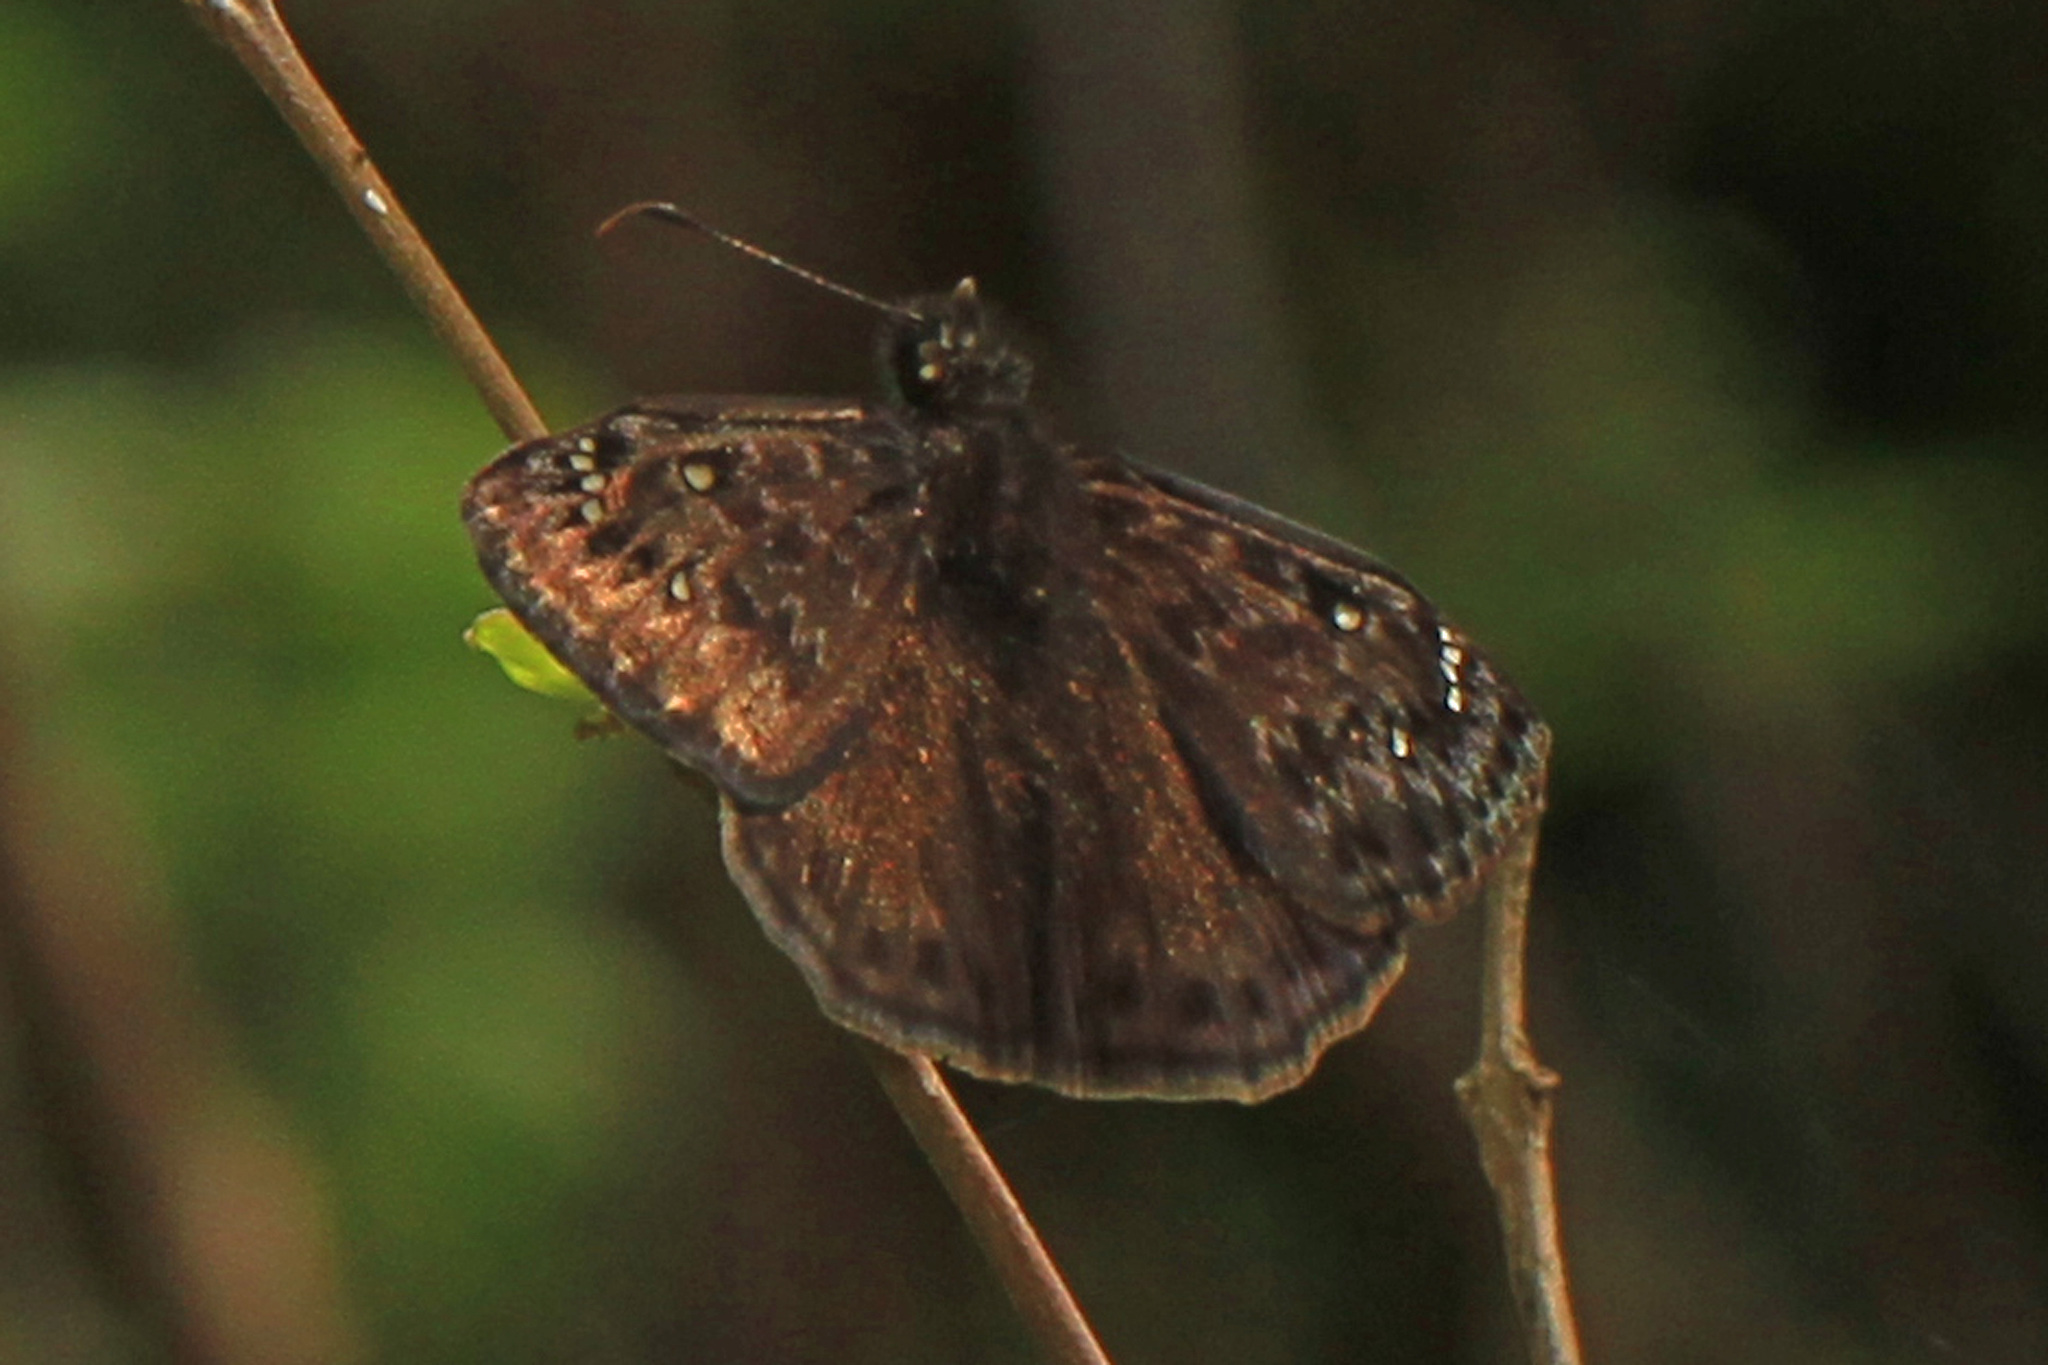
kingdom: Animalia
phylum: Arthropoda
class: Insecta
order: Lepidoptera
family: Hesperiidae
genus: Erynnis
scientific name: Erynnis horatius
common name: Horace's duskywing
